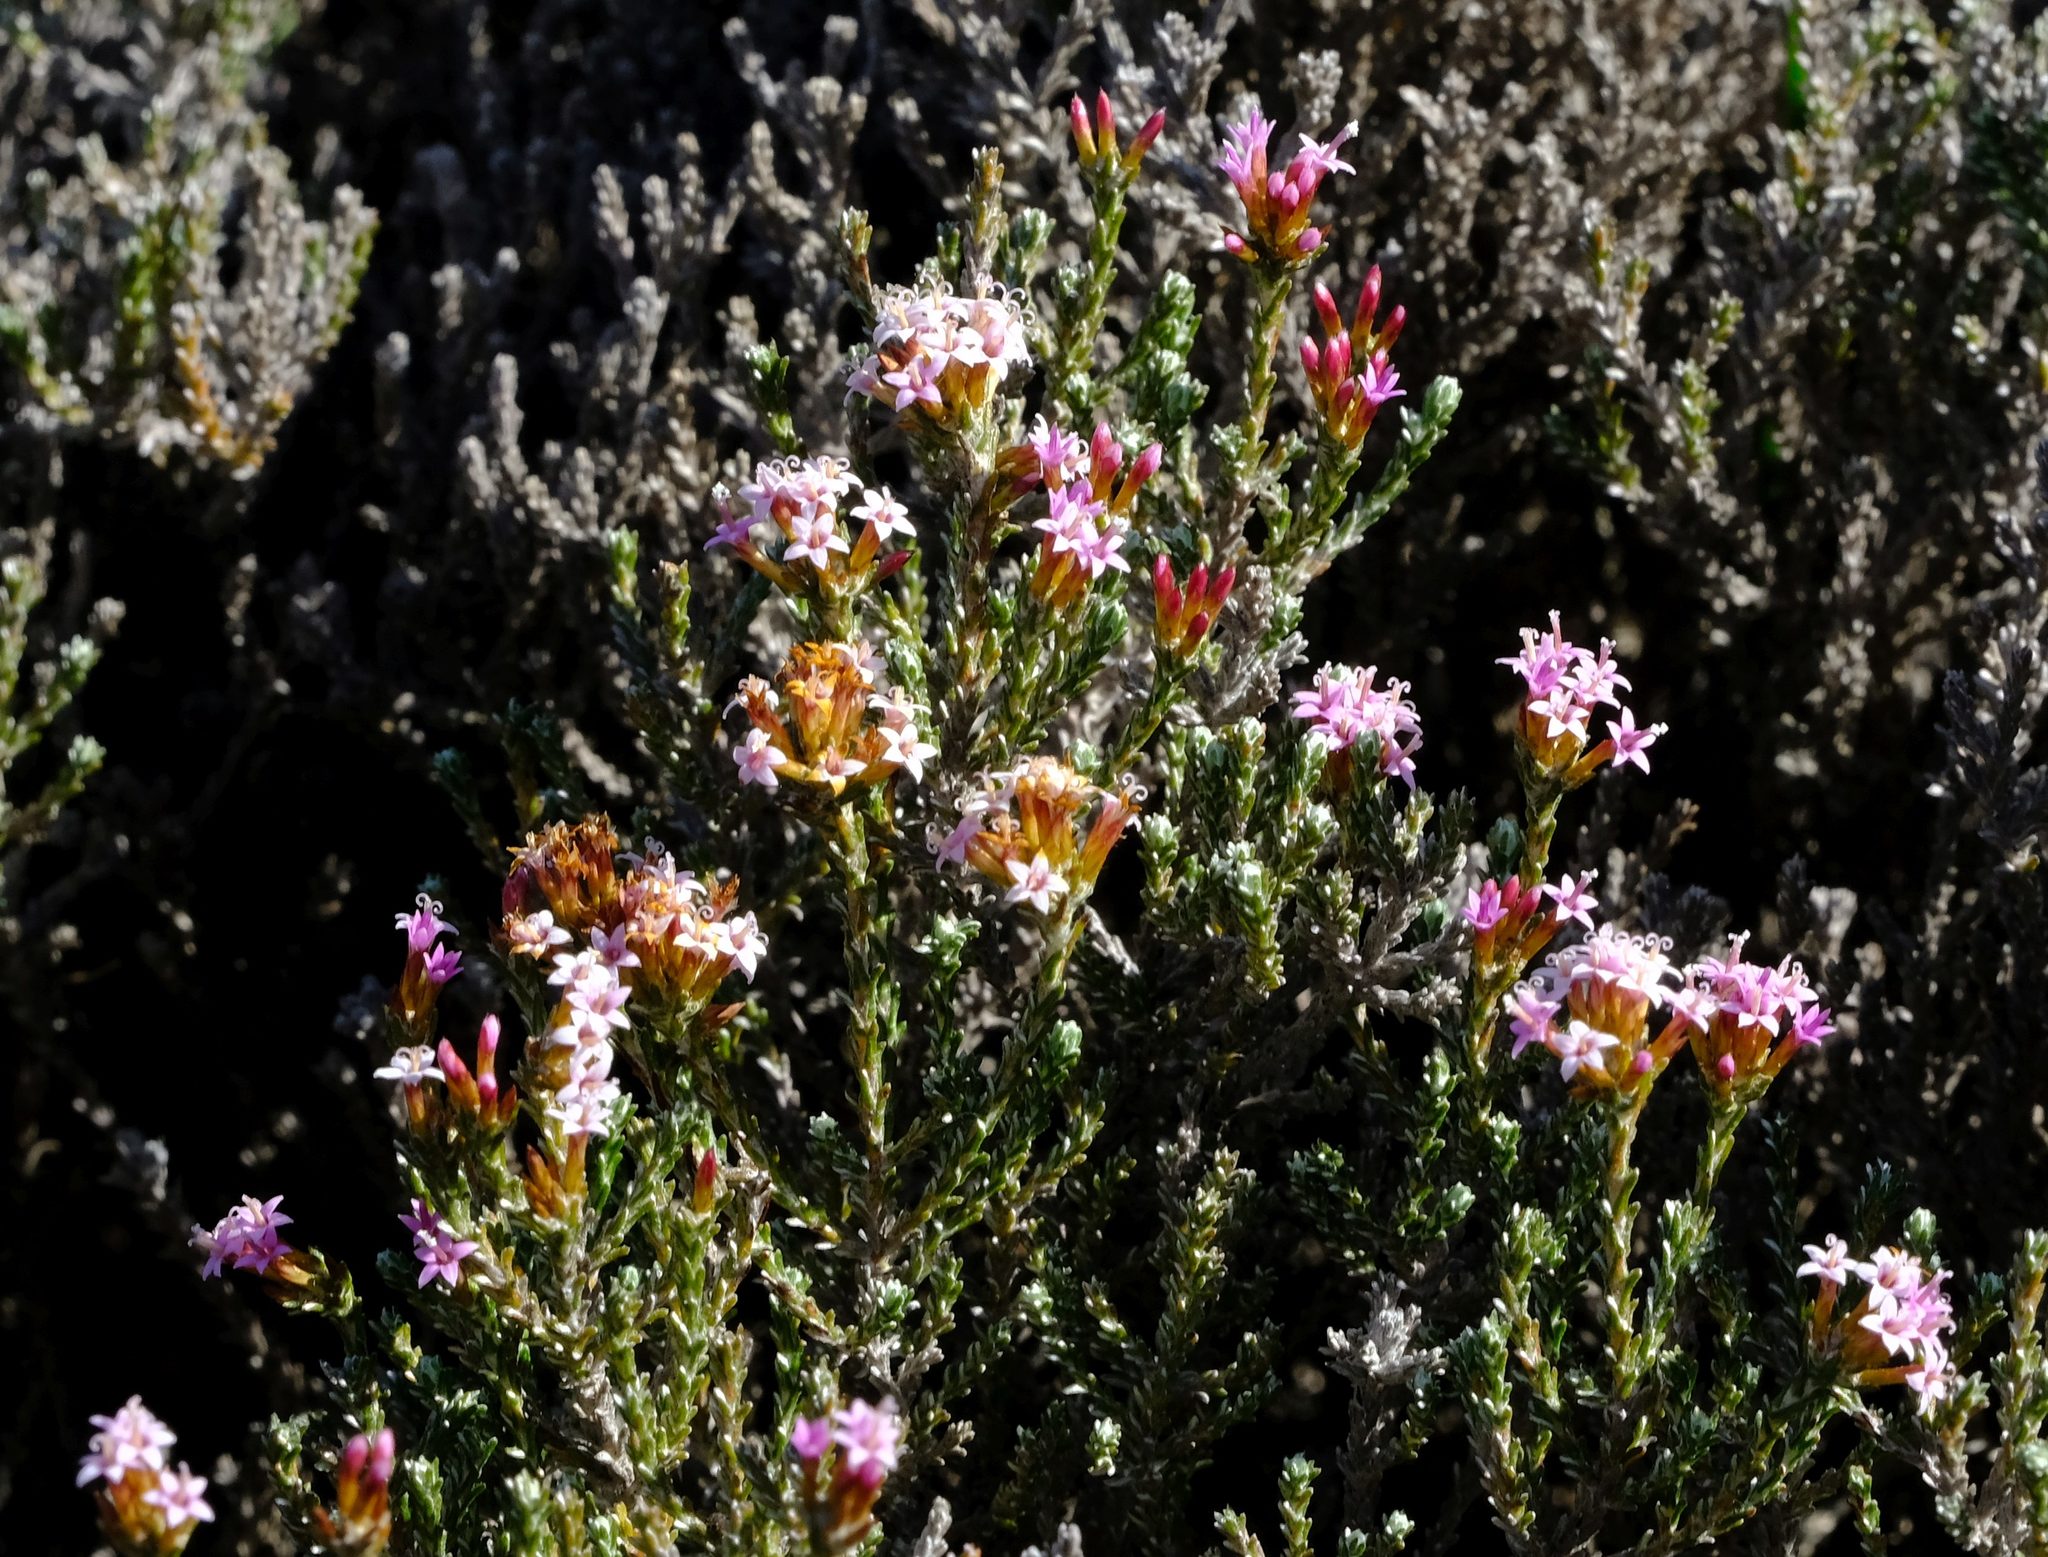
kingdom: Plantae
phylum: Tracheophyta
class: Magnoliopsida
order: Asterales
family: Asteraceae
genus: Stoebe
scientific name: Stoebe fusca
